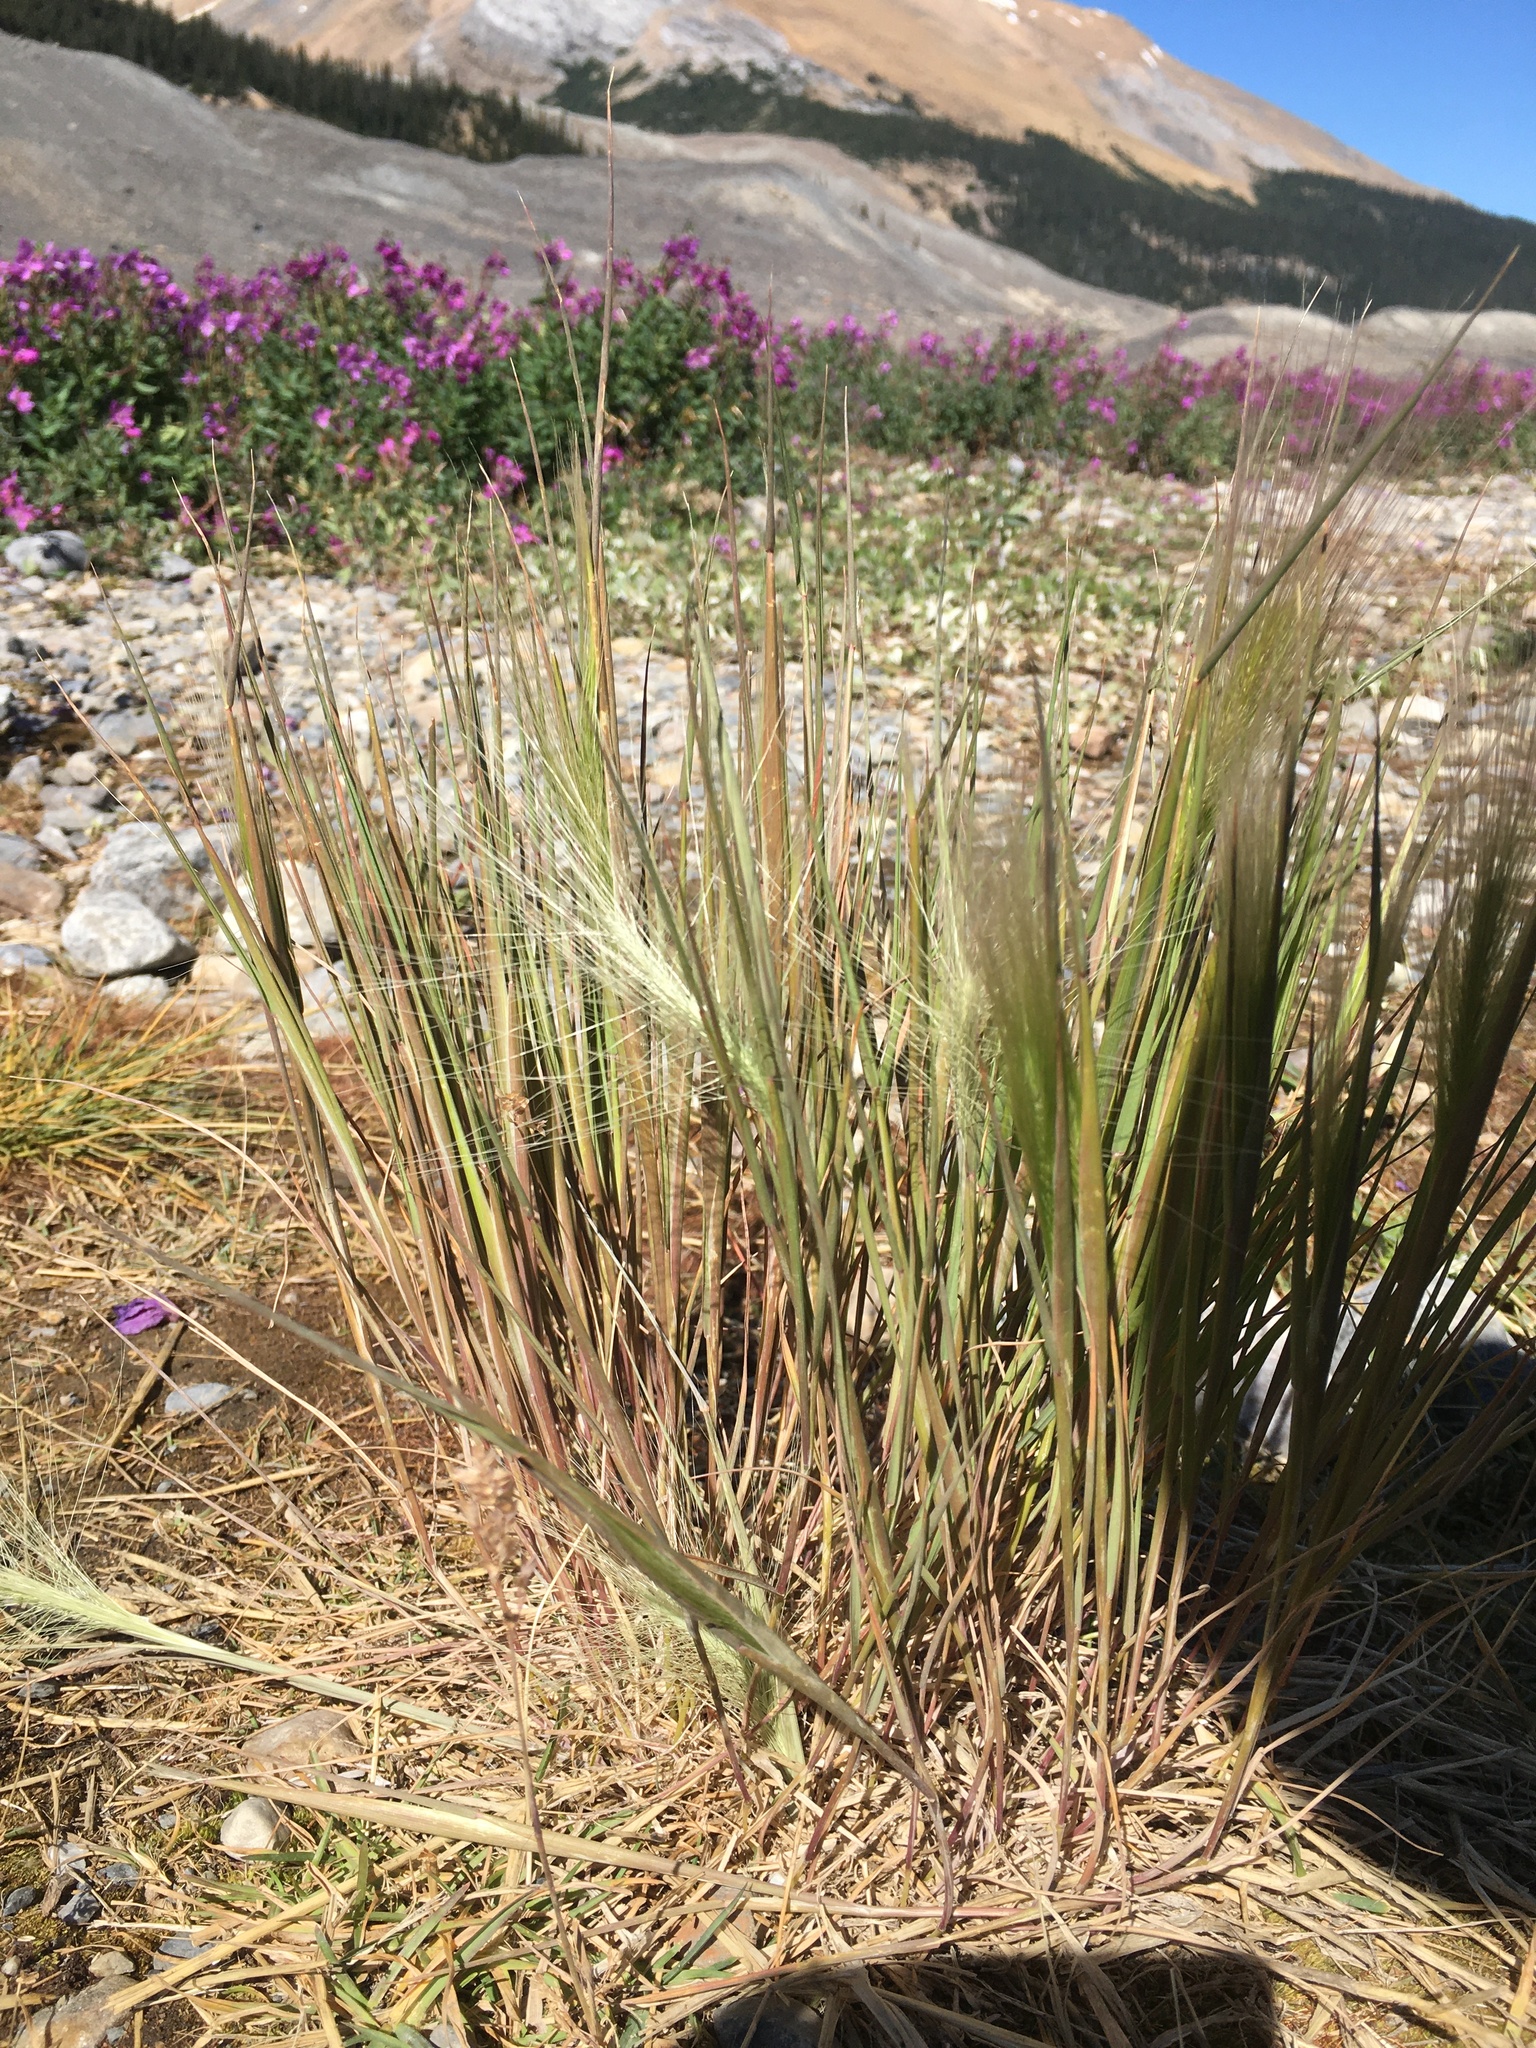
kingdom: Plantae
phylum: Tracheophyta
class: Liliopsida
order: Poales
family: Poaceae
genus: Hordeum
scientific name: Hordeum jubatum
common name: Foxtail barley
